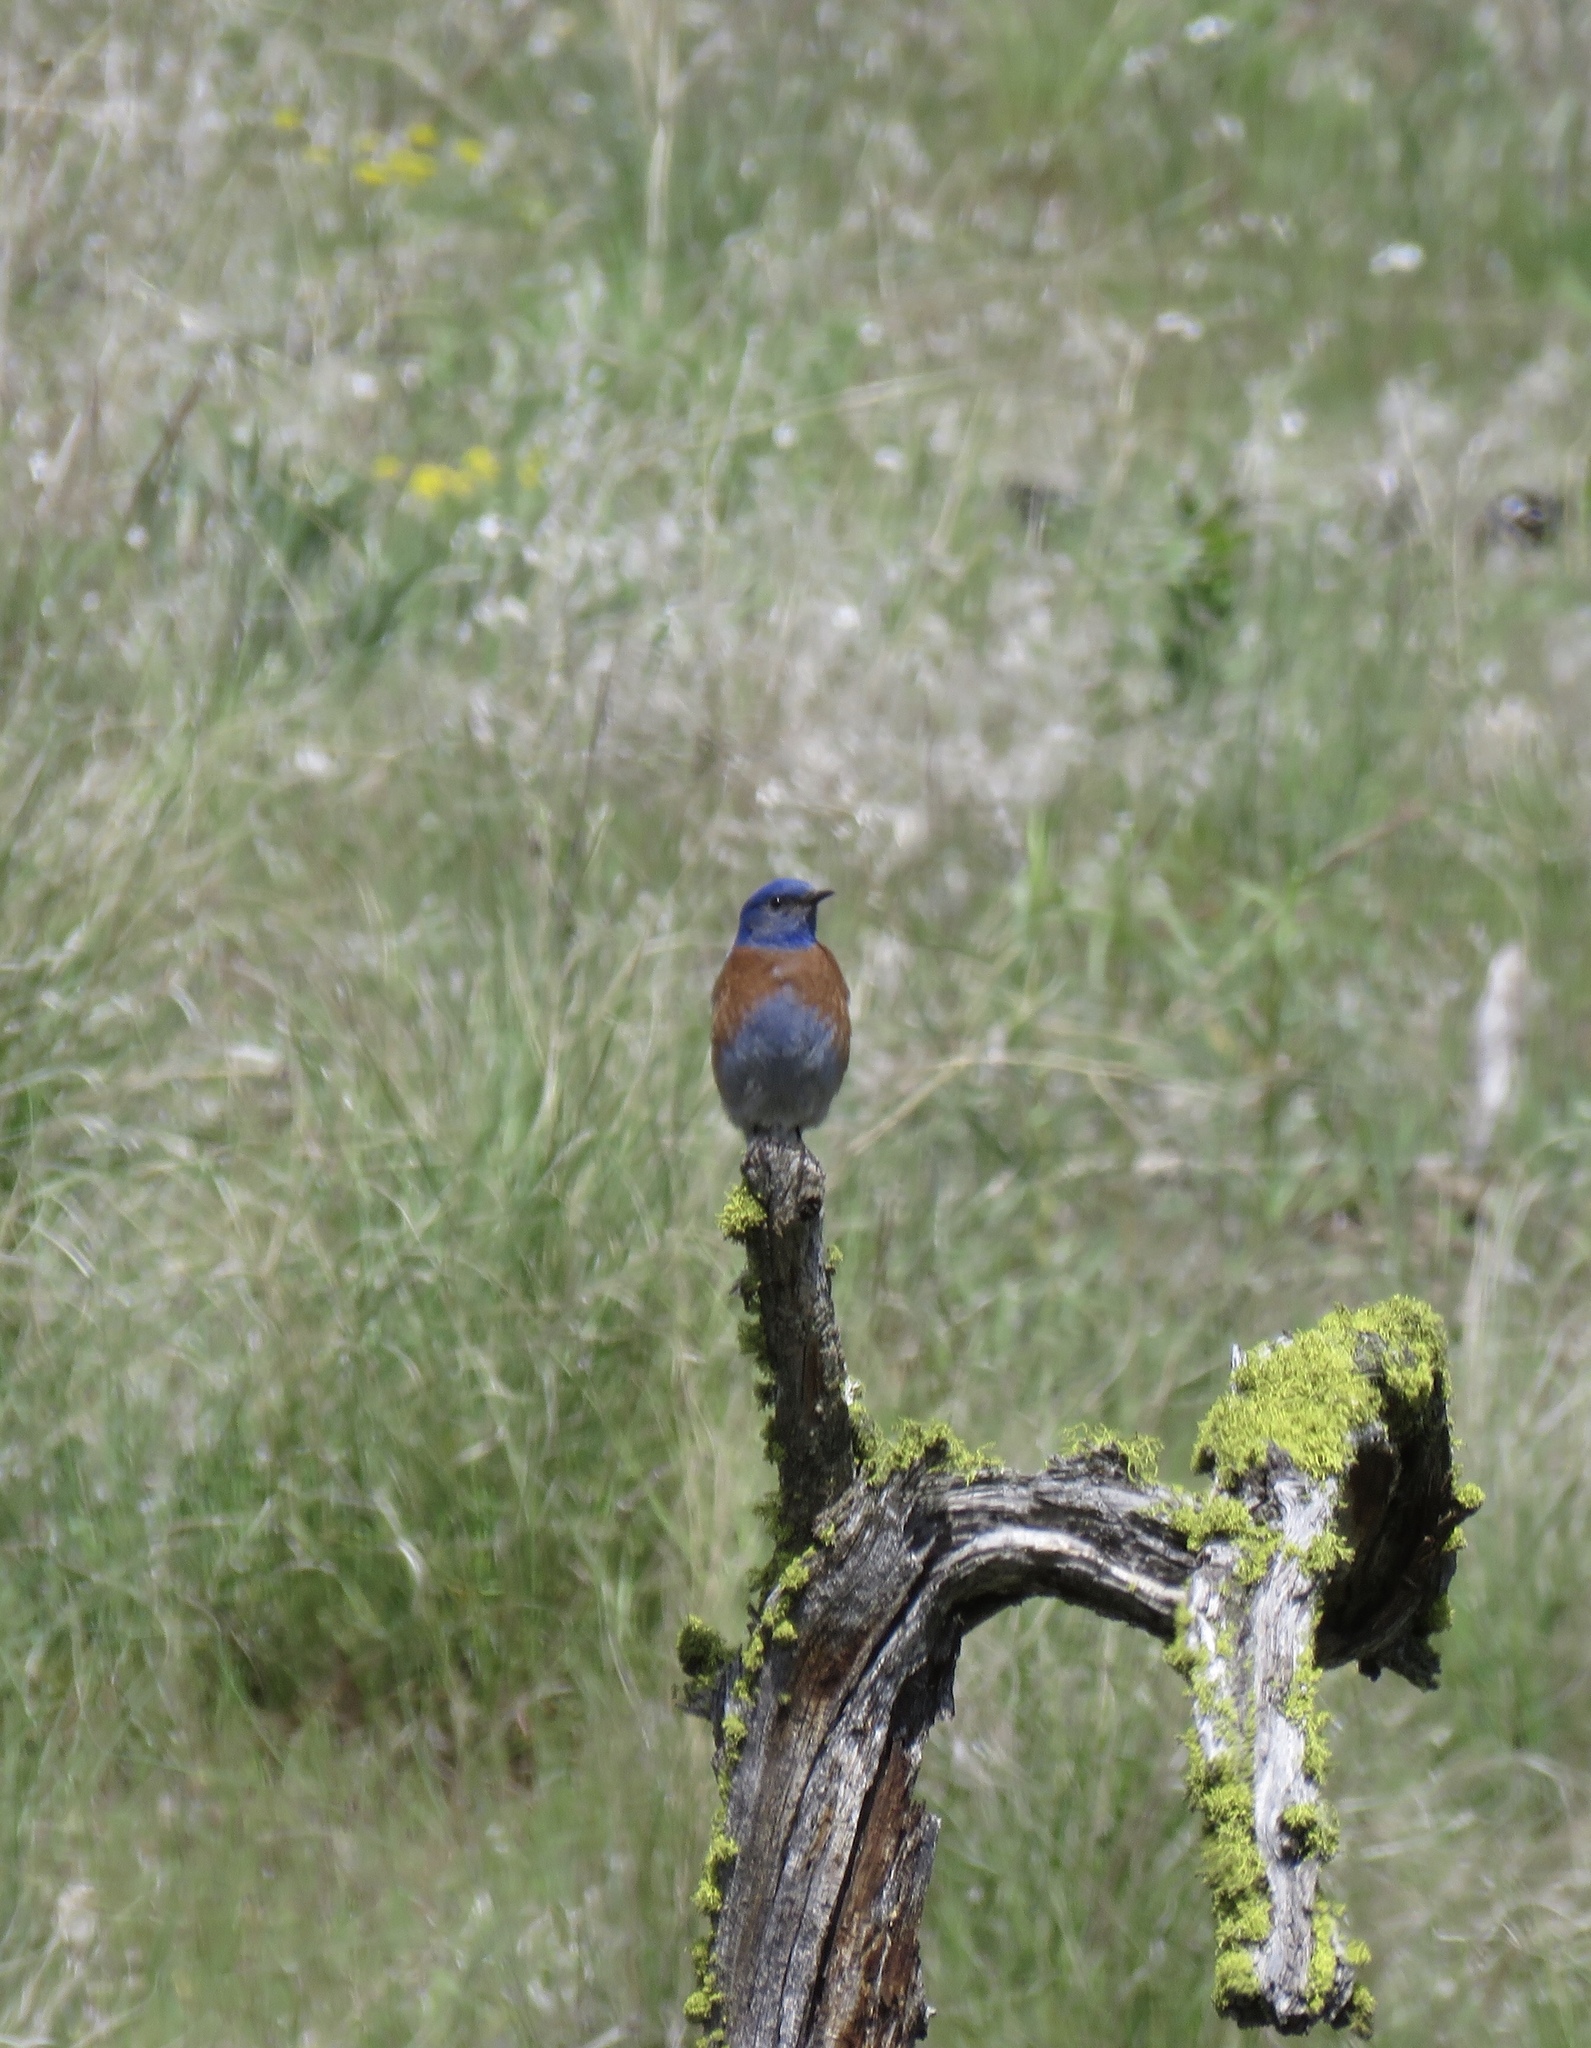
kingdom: Animalia
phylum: Chordata
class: Aves
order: Passeriformes
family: Turdidae
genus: Sialia
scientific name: Sialia mexicana
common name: Western bluebird
